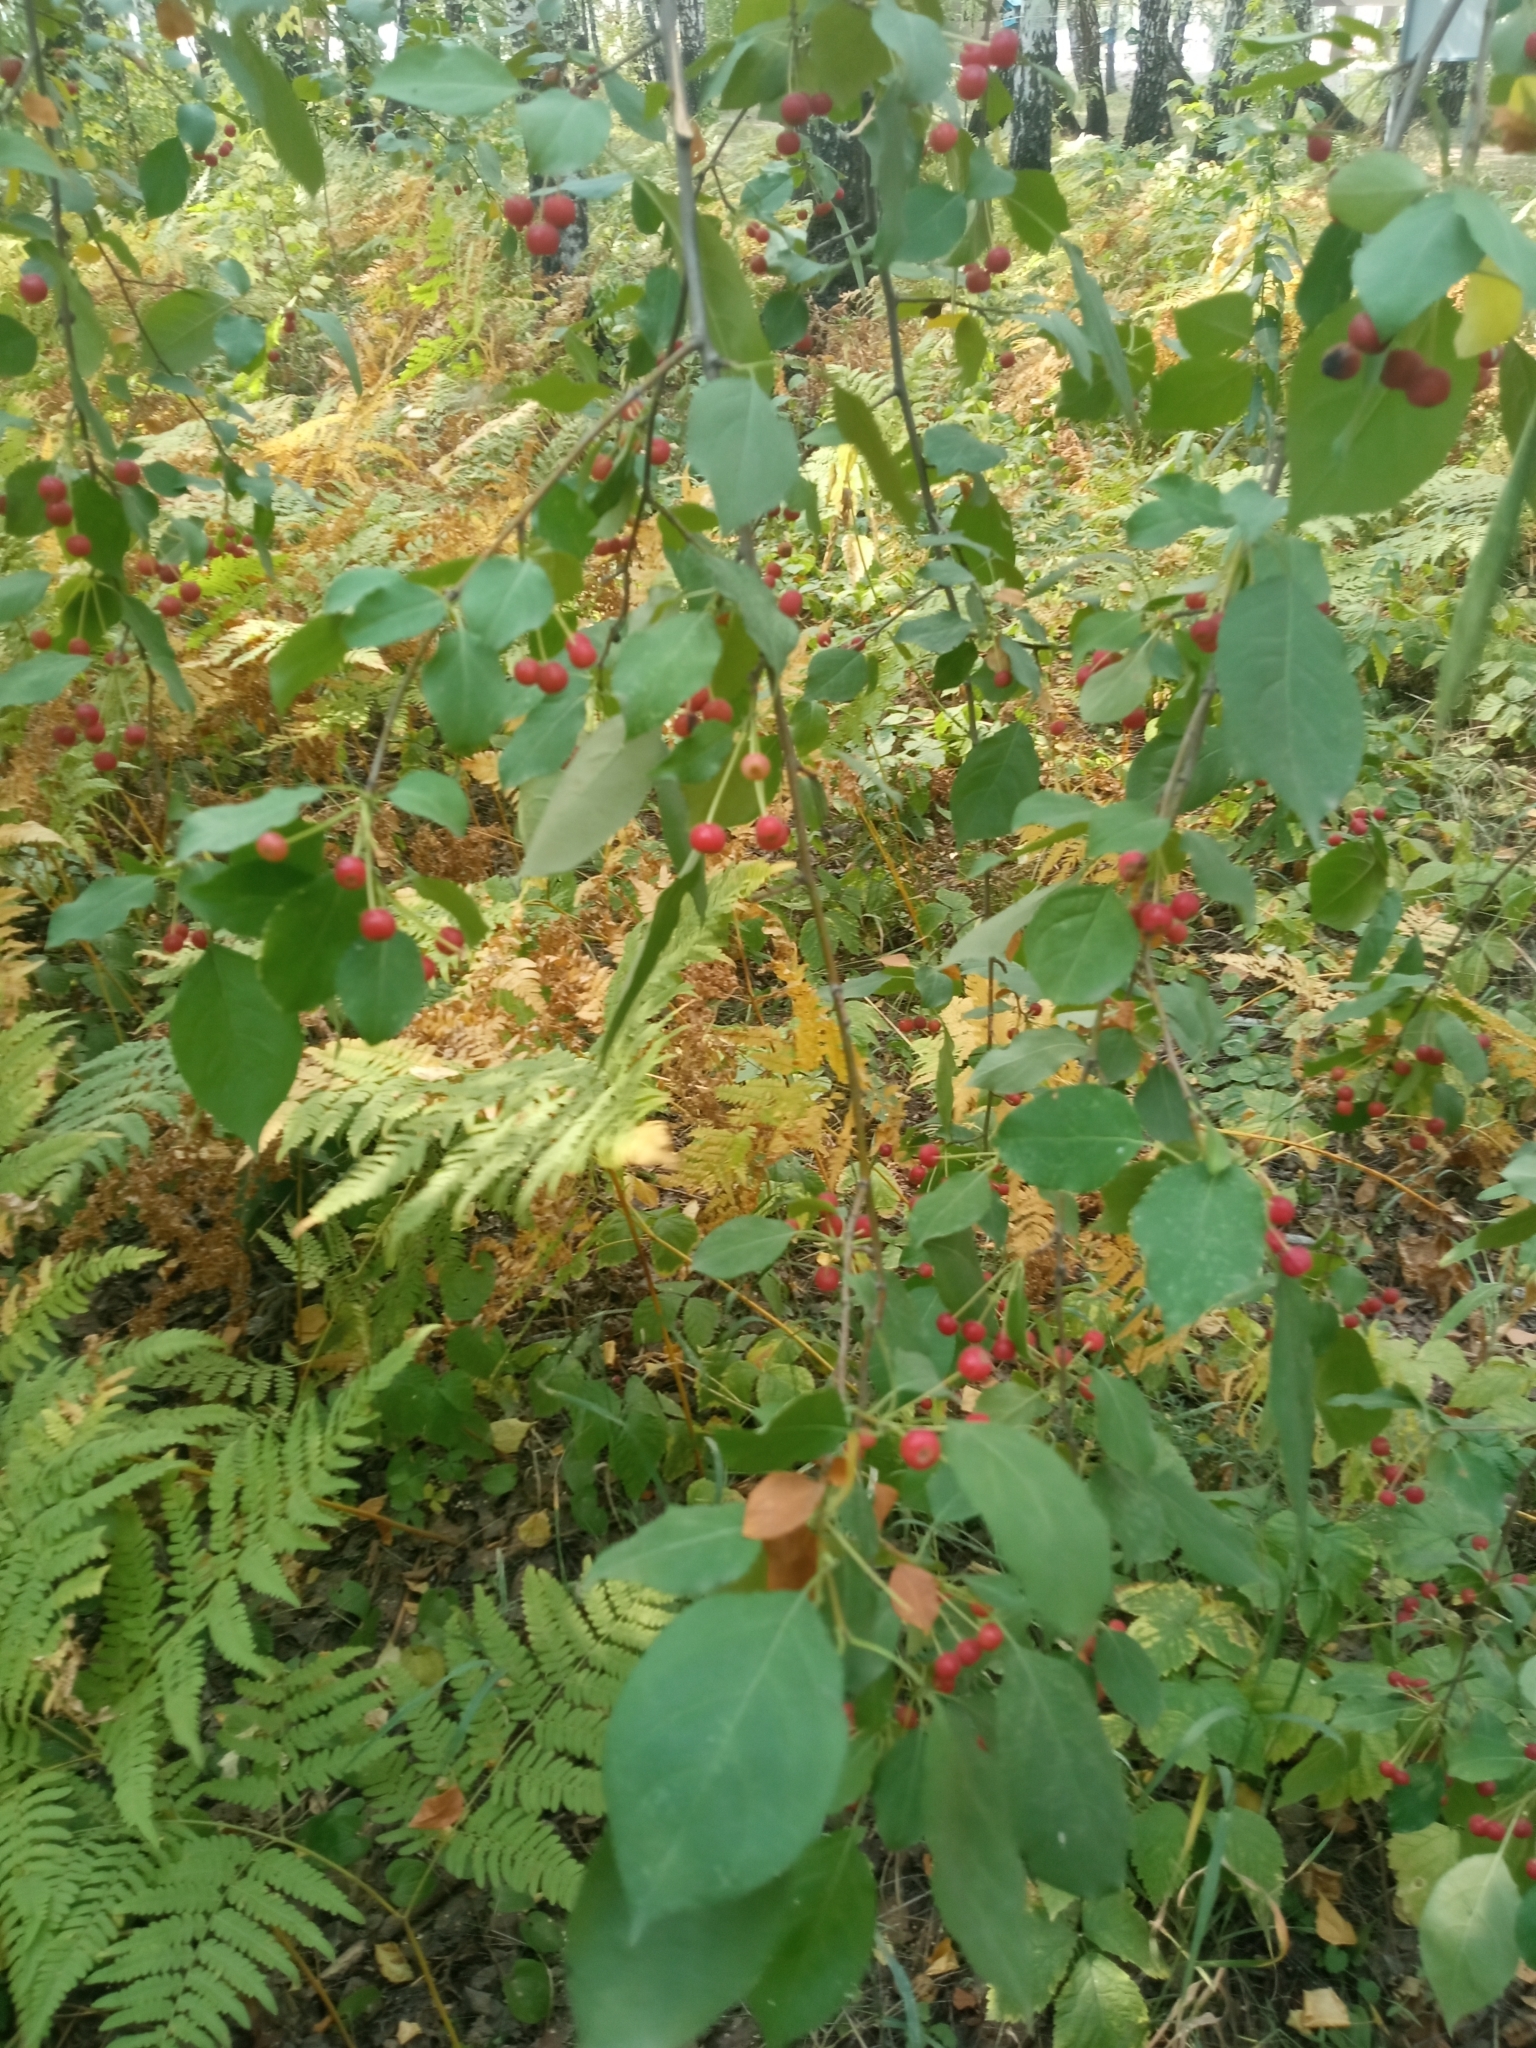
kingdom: Plantae
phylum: Tracheophyta
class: Magnoliopsida
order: Rosales
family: Rosaceae
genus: Malus
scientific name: Malus baccata
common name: Siberian crab
